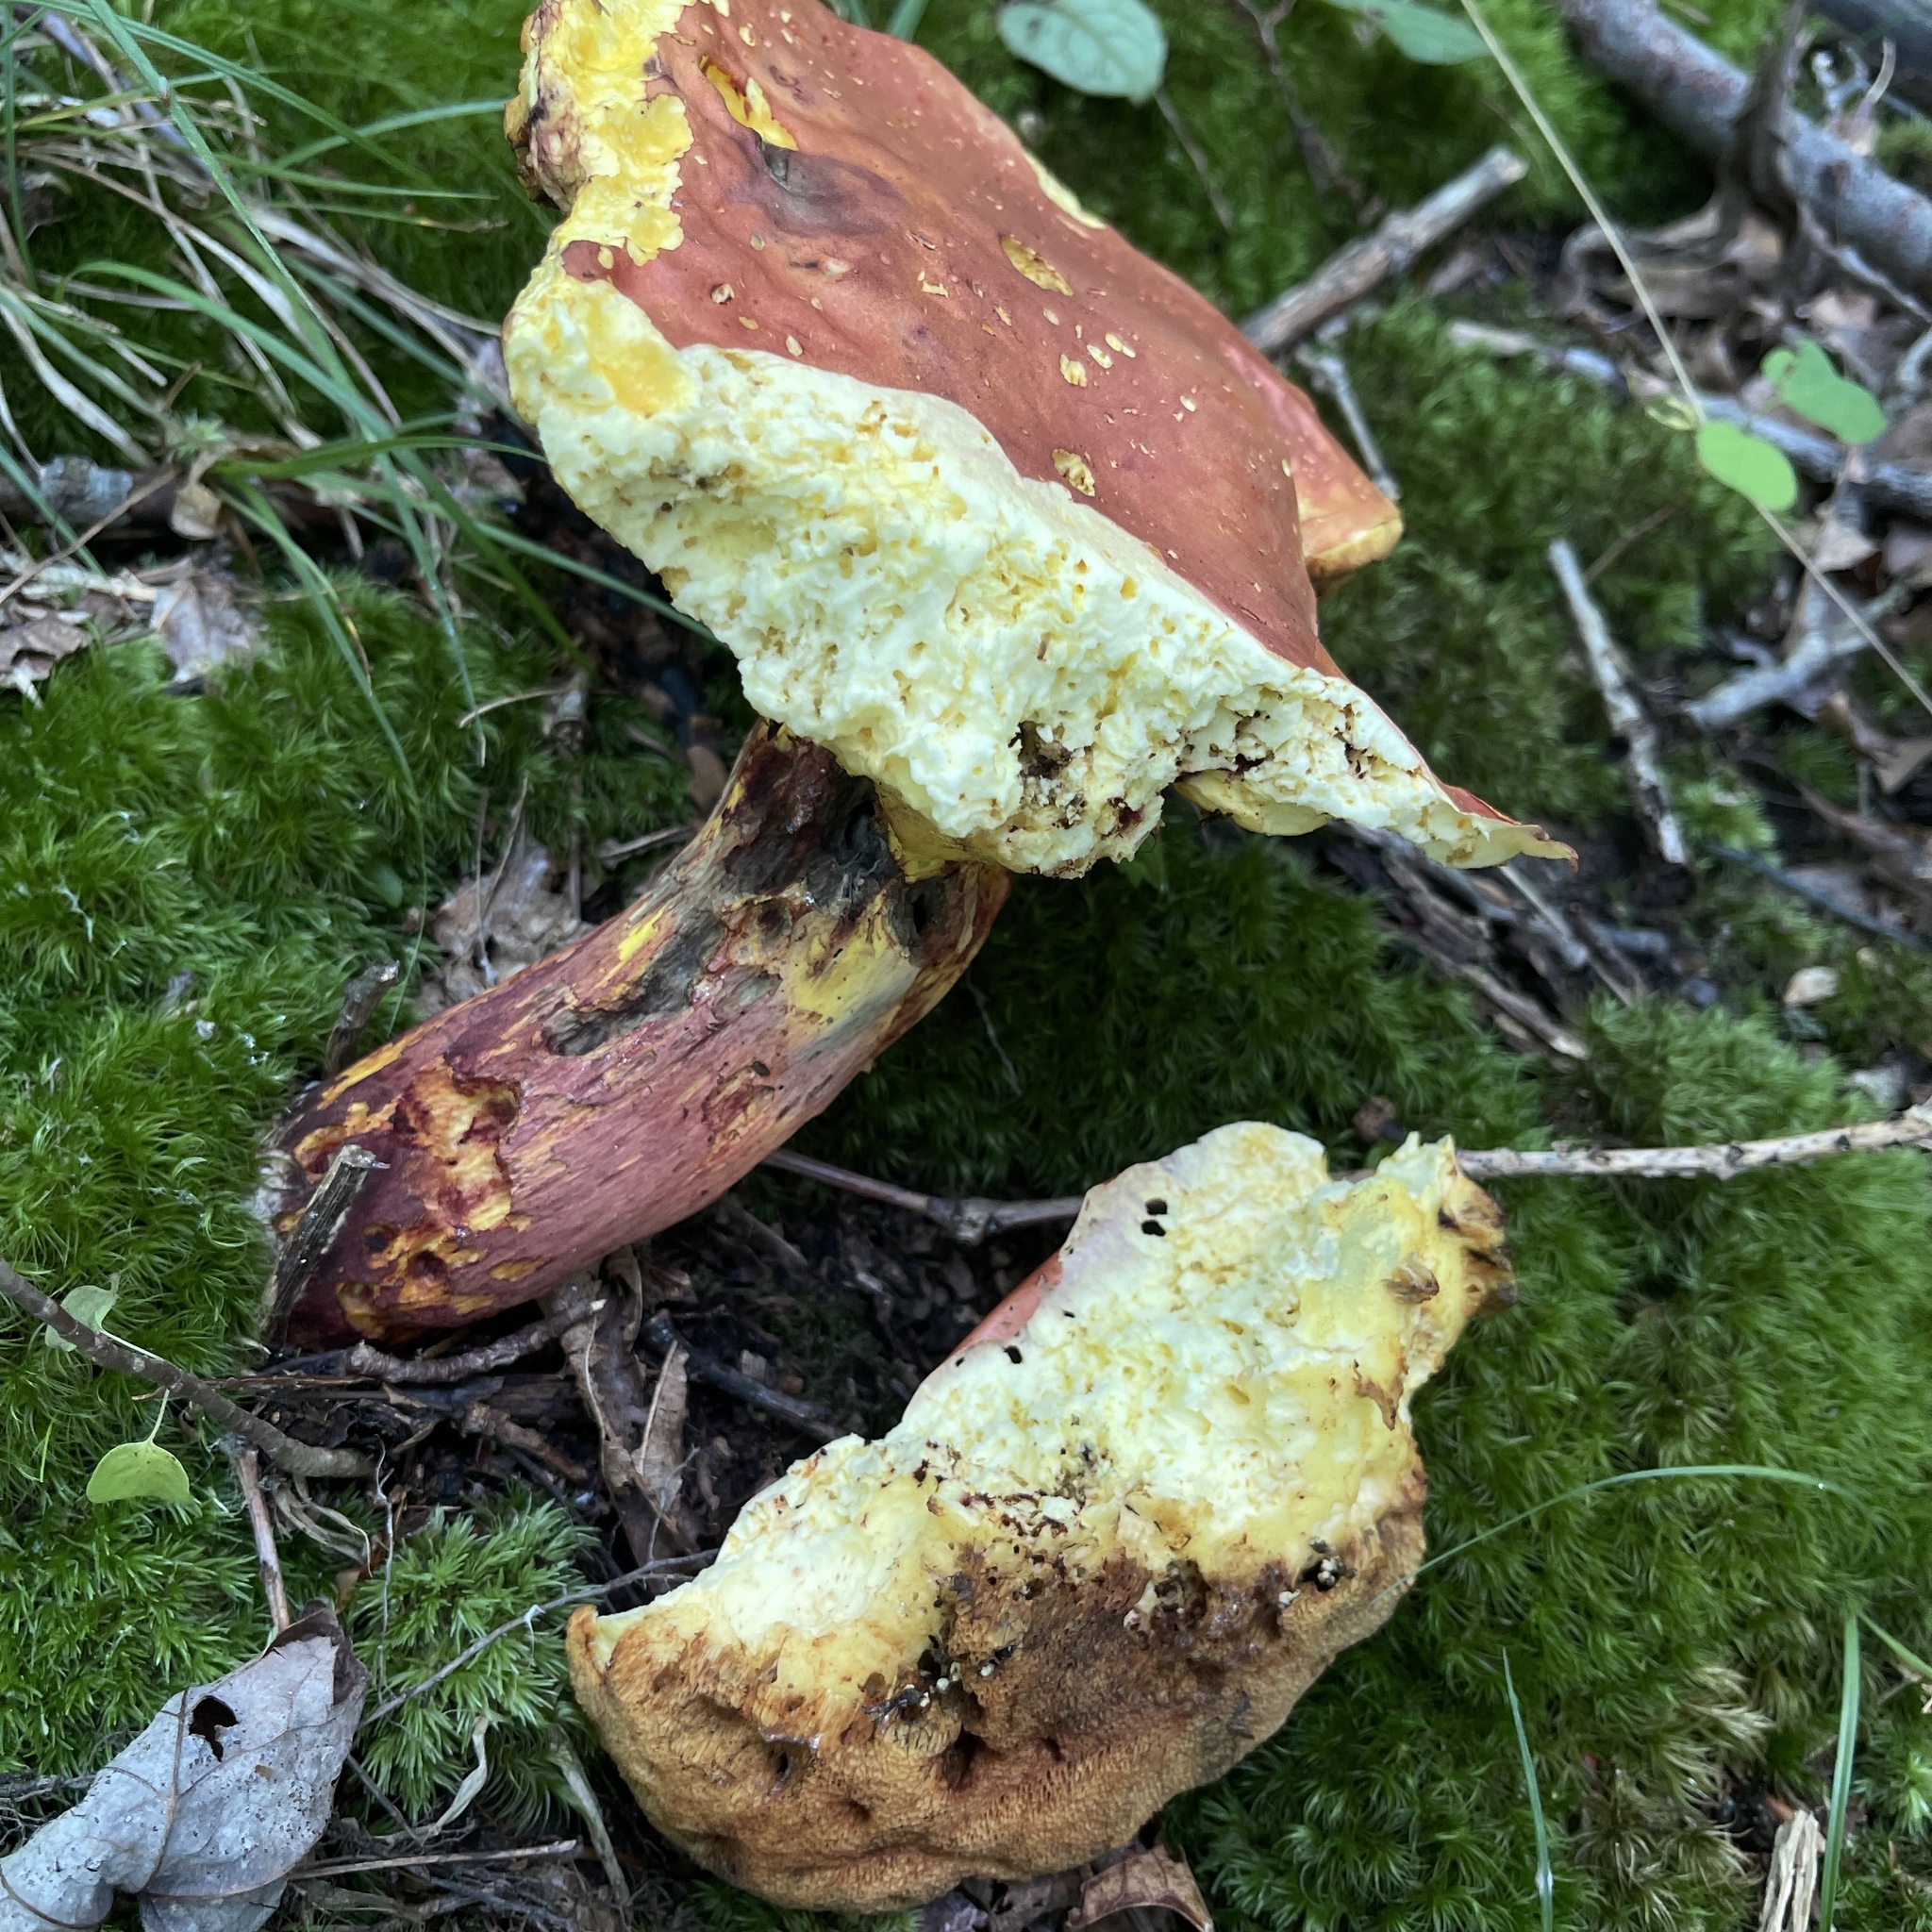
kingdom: Fungi
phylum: Basidiomycota
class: Agaricomycetes
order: Boletales
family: Boletaceae
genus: Baorangia
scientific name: Baorangia bicolor
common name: Two-colored bolete
